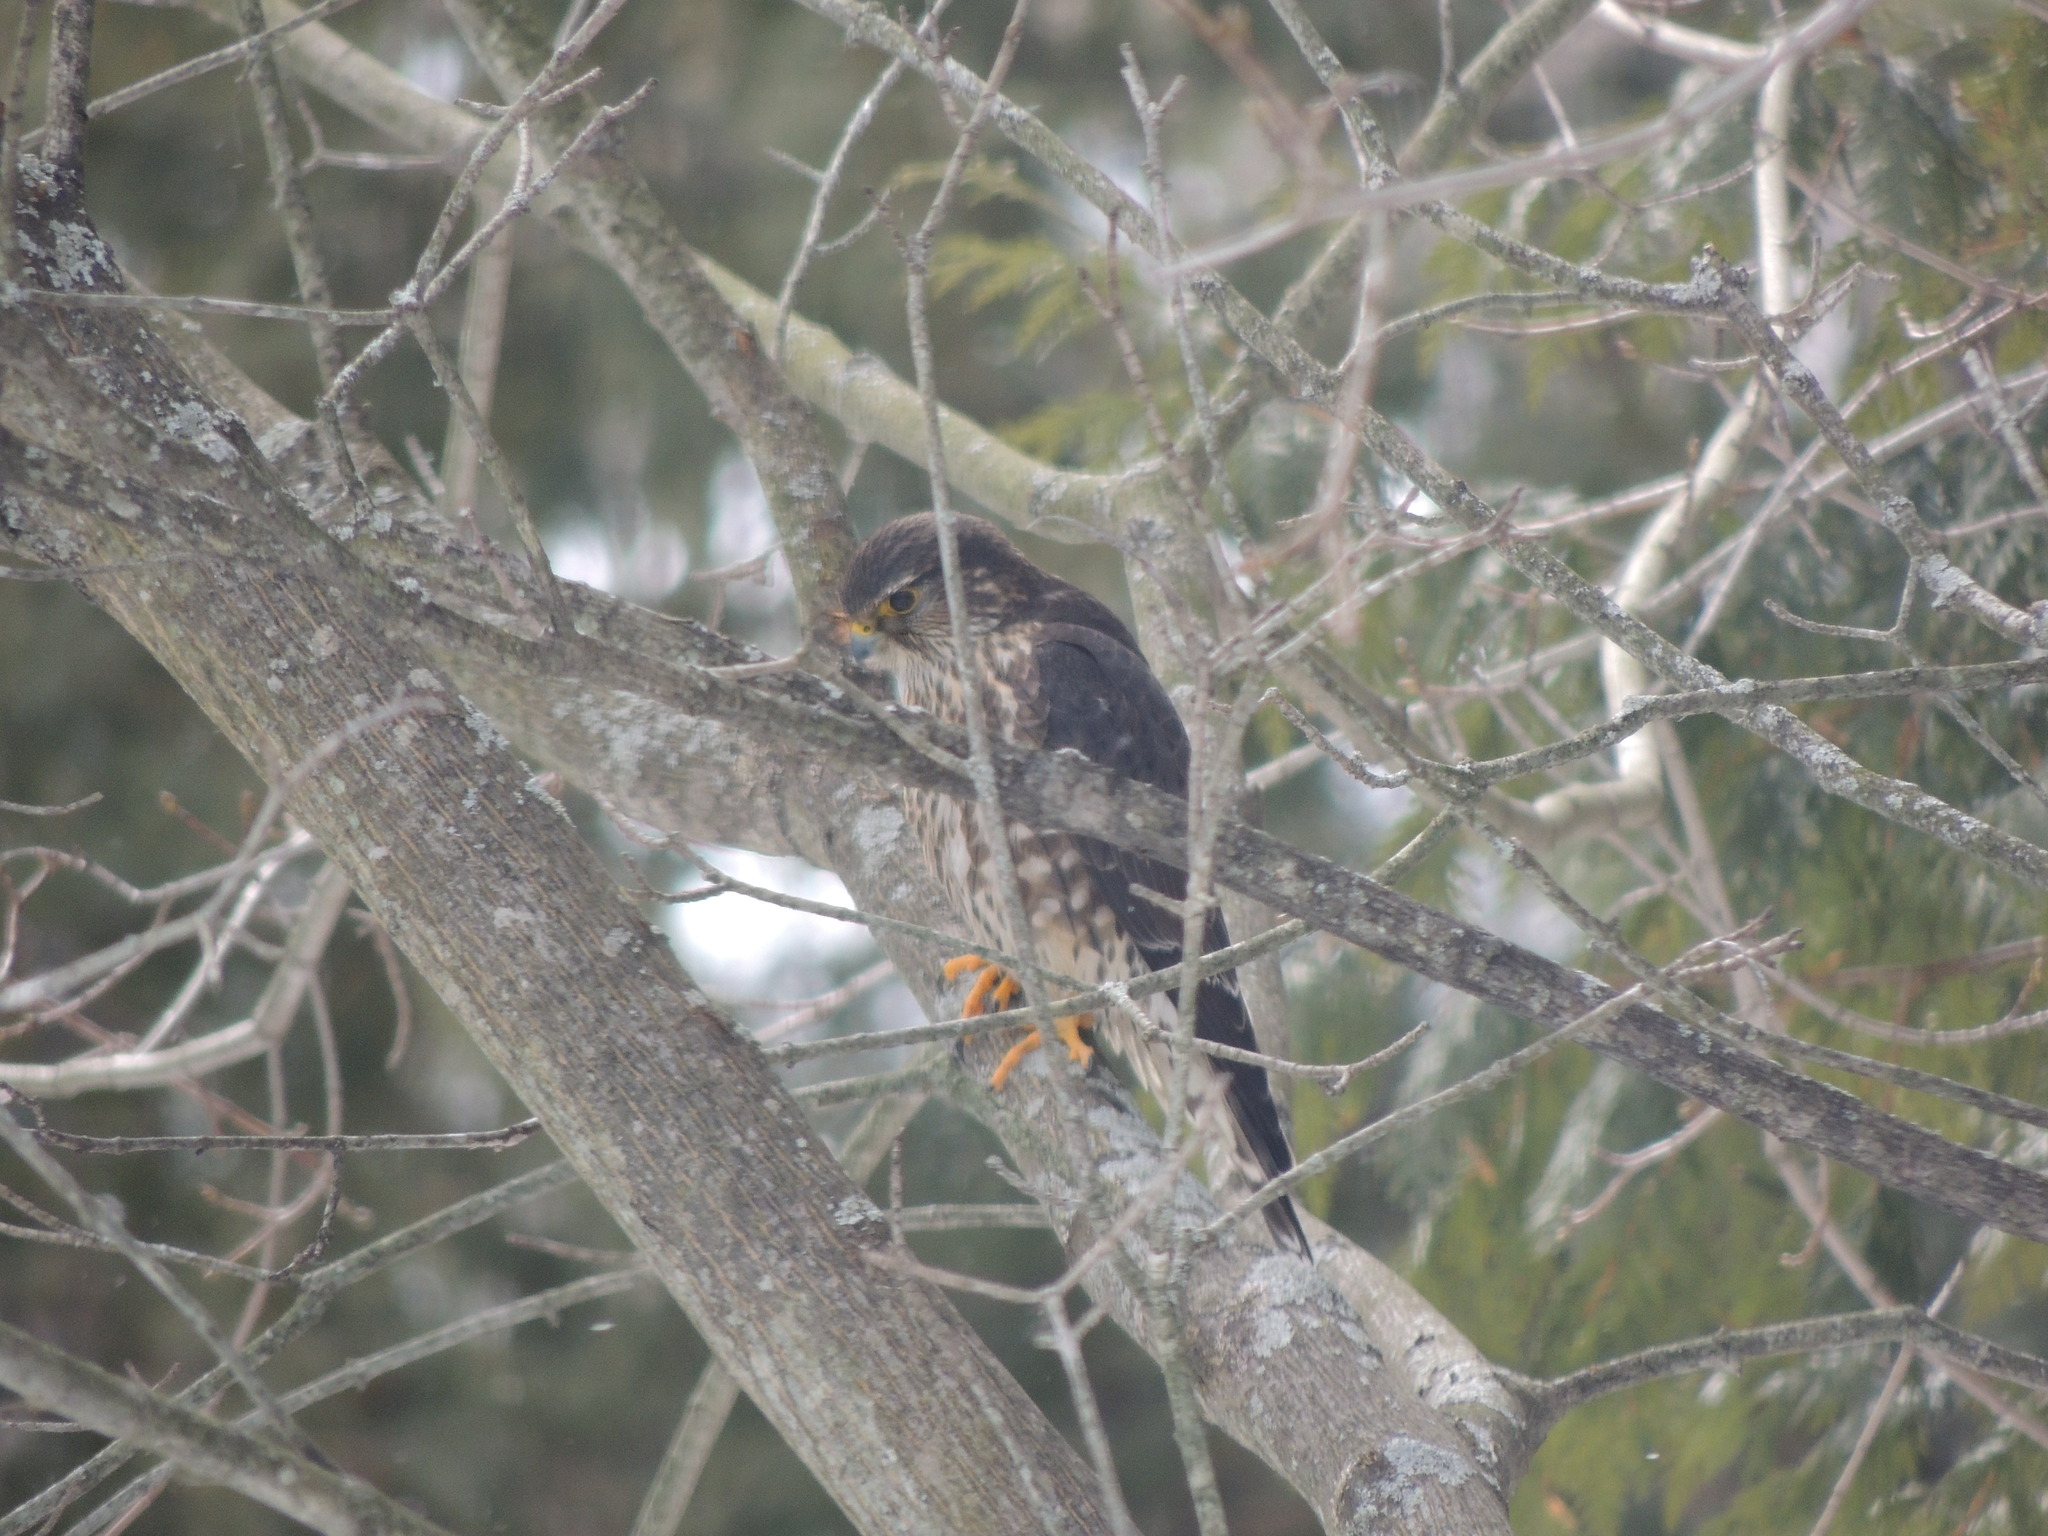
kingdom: Animalia
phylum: Chordata
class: Aves
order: Falconiformes
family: Falconidae
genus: Falco
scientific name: Falco columbarius
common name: Merlin
